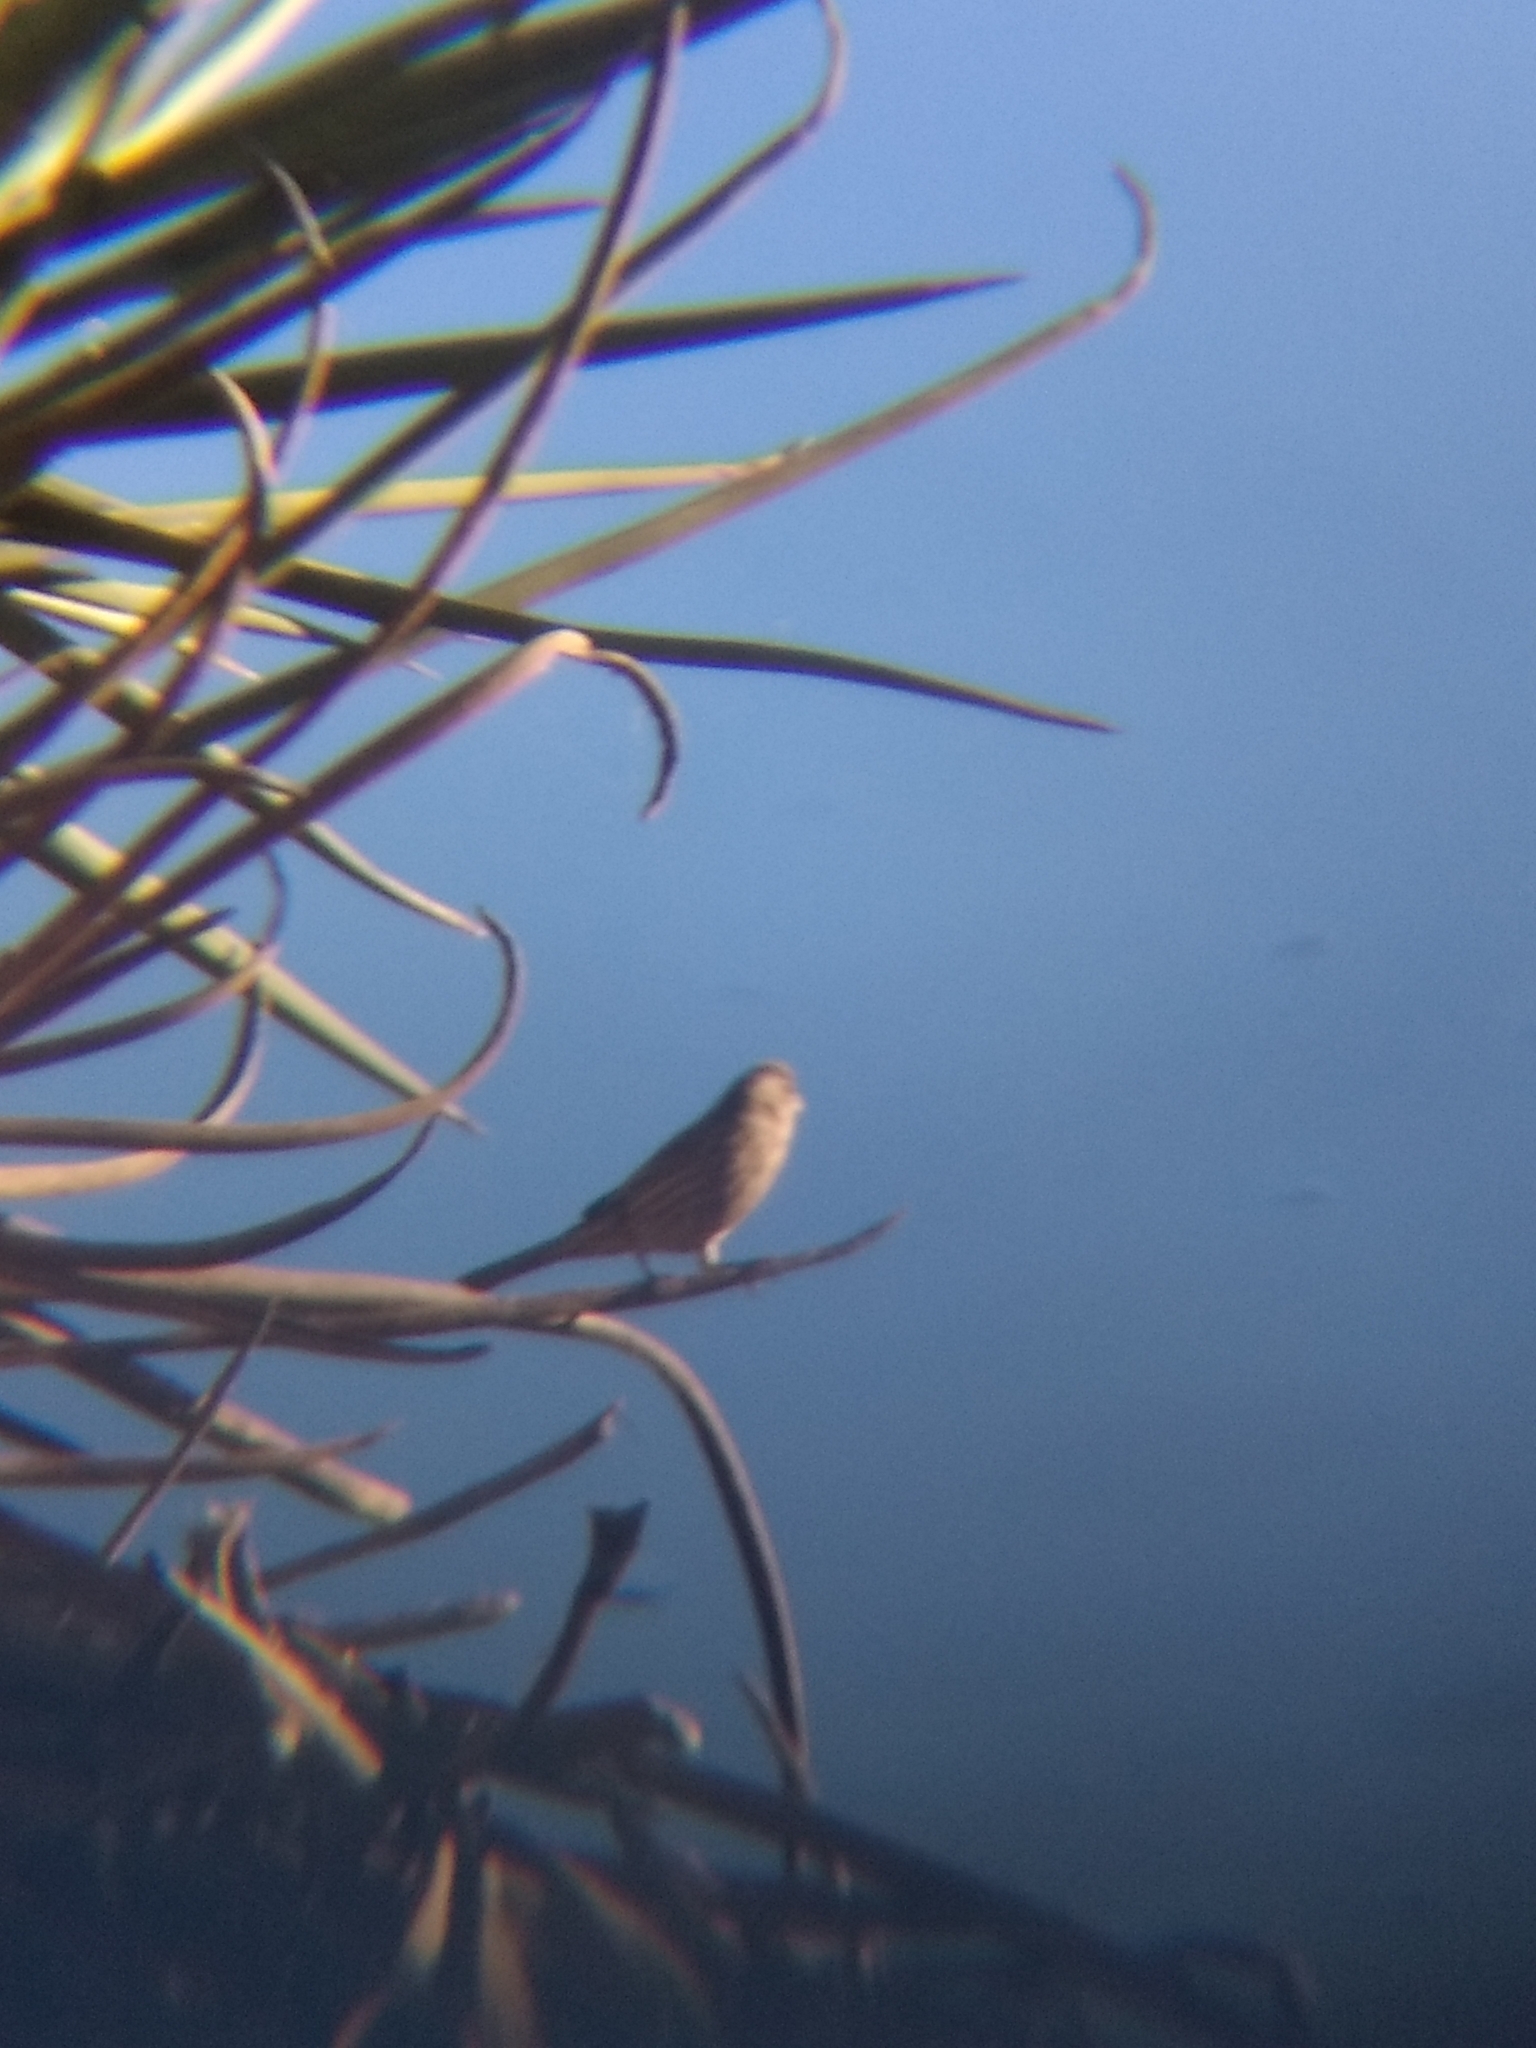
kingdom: Animalia
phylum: Chordata
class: Aves
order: Passeriformes
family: Fringillidae
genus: Haemorhous
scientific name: Haemorhous mexicanus
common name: House finch
